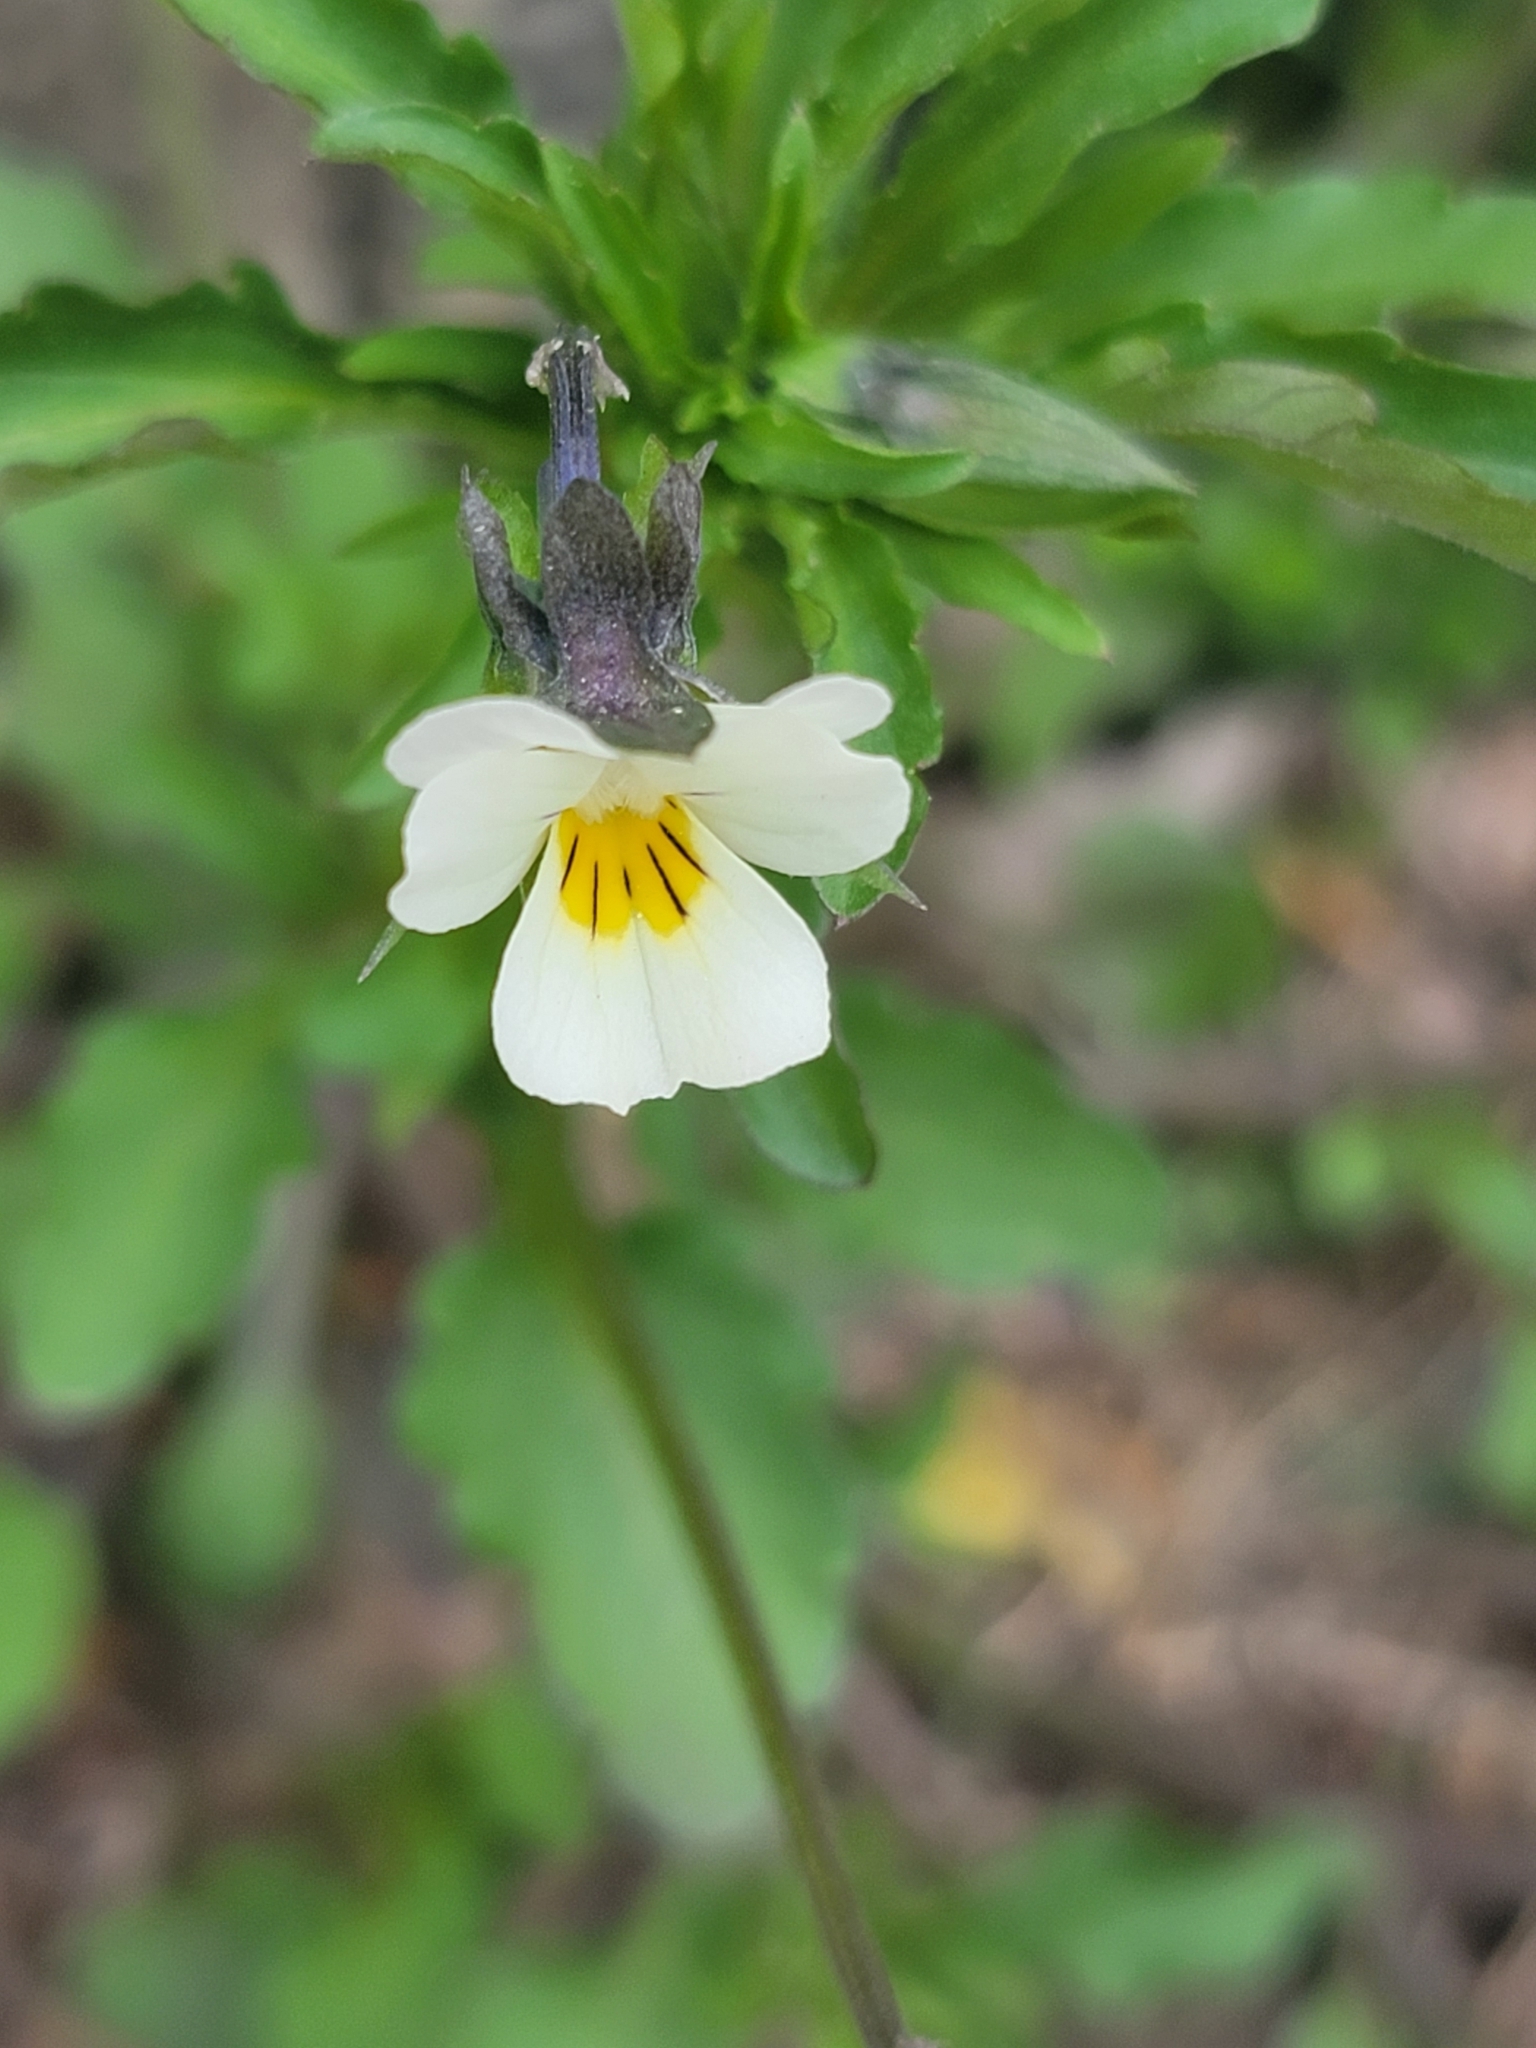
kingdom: Plantae
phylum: Tracheophyta
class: Magnoliopsida
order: Malpighiales
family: Violaceae
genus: Viola
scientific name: Viola arvensis
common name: Field pansy
